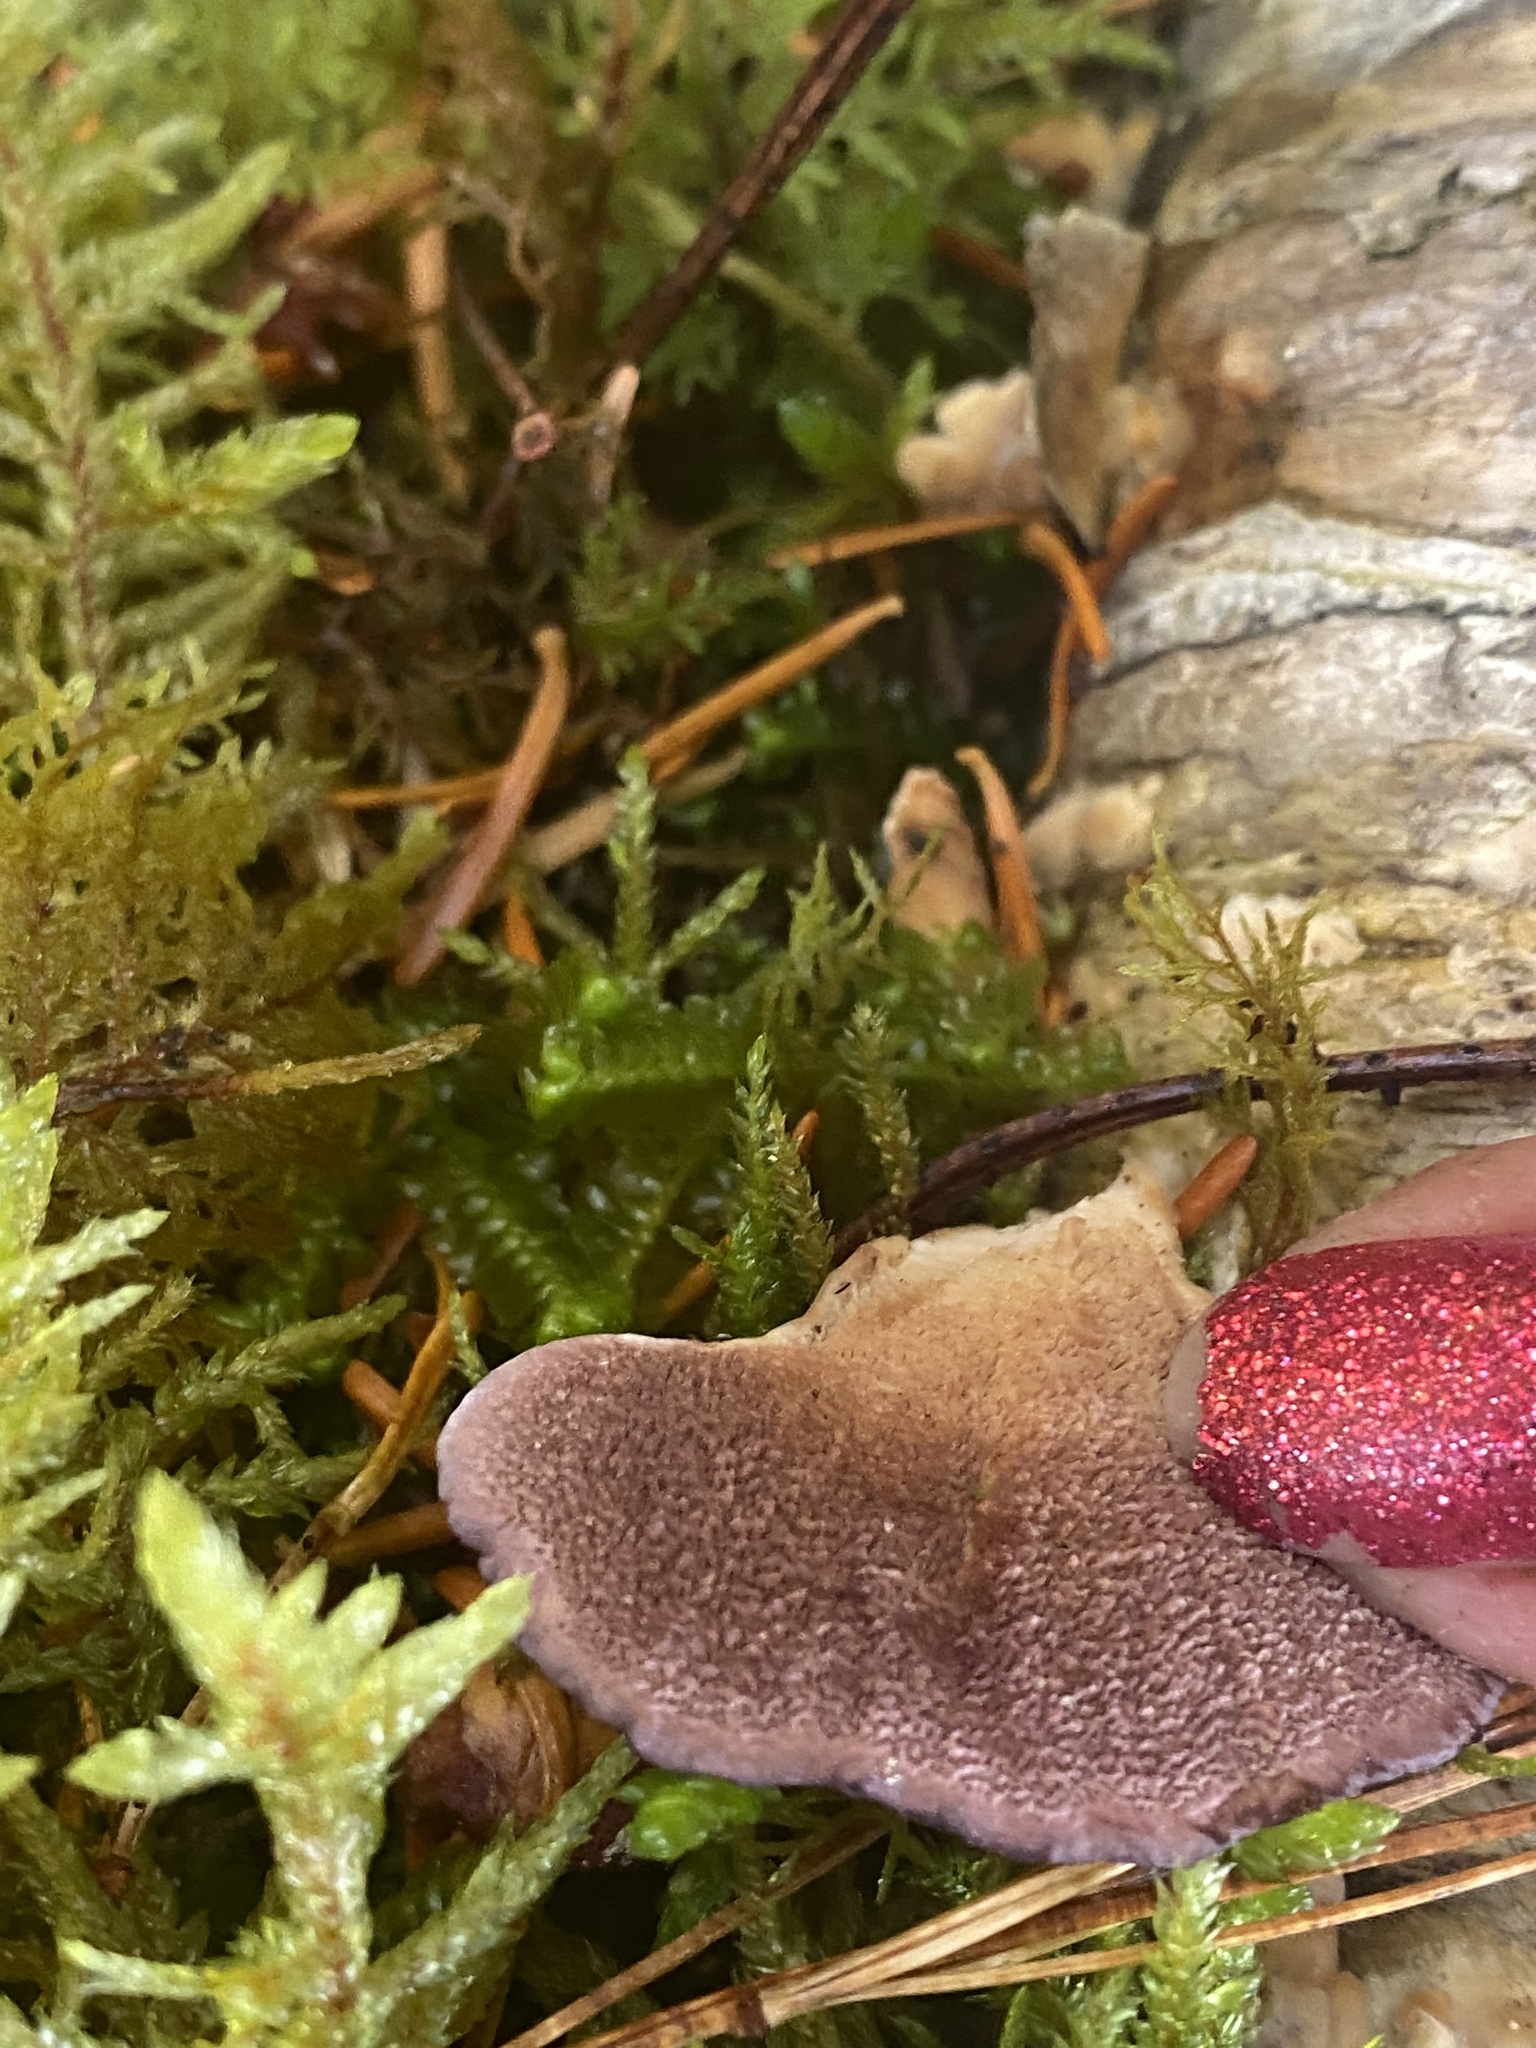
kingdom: Fungi
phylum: Basidiomycota
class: Agaricomycetes
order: Hymenochaetales
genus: Trichaptum
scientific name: Trichaptum biforme
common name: Violet-toothed polypore
